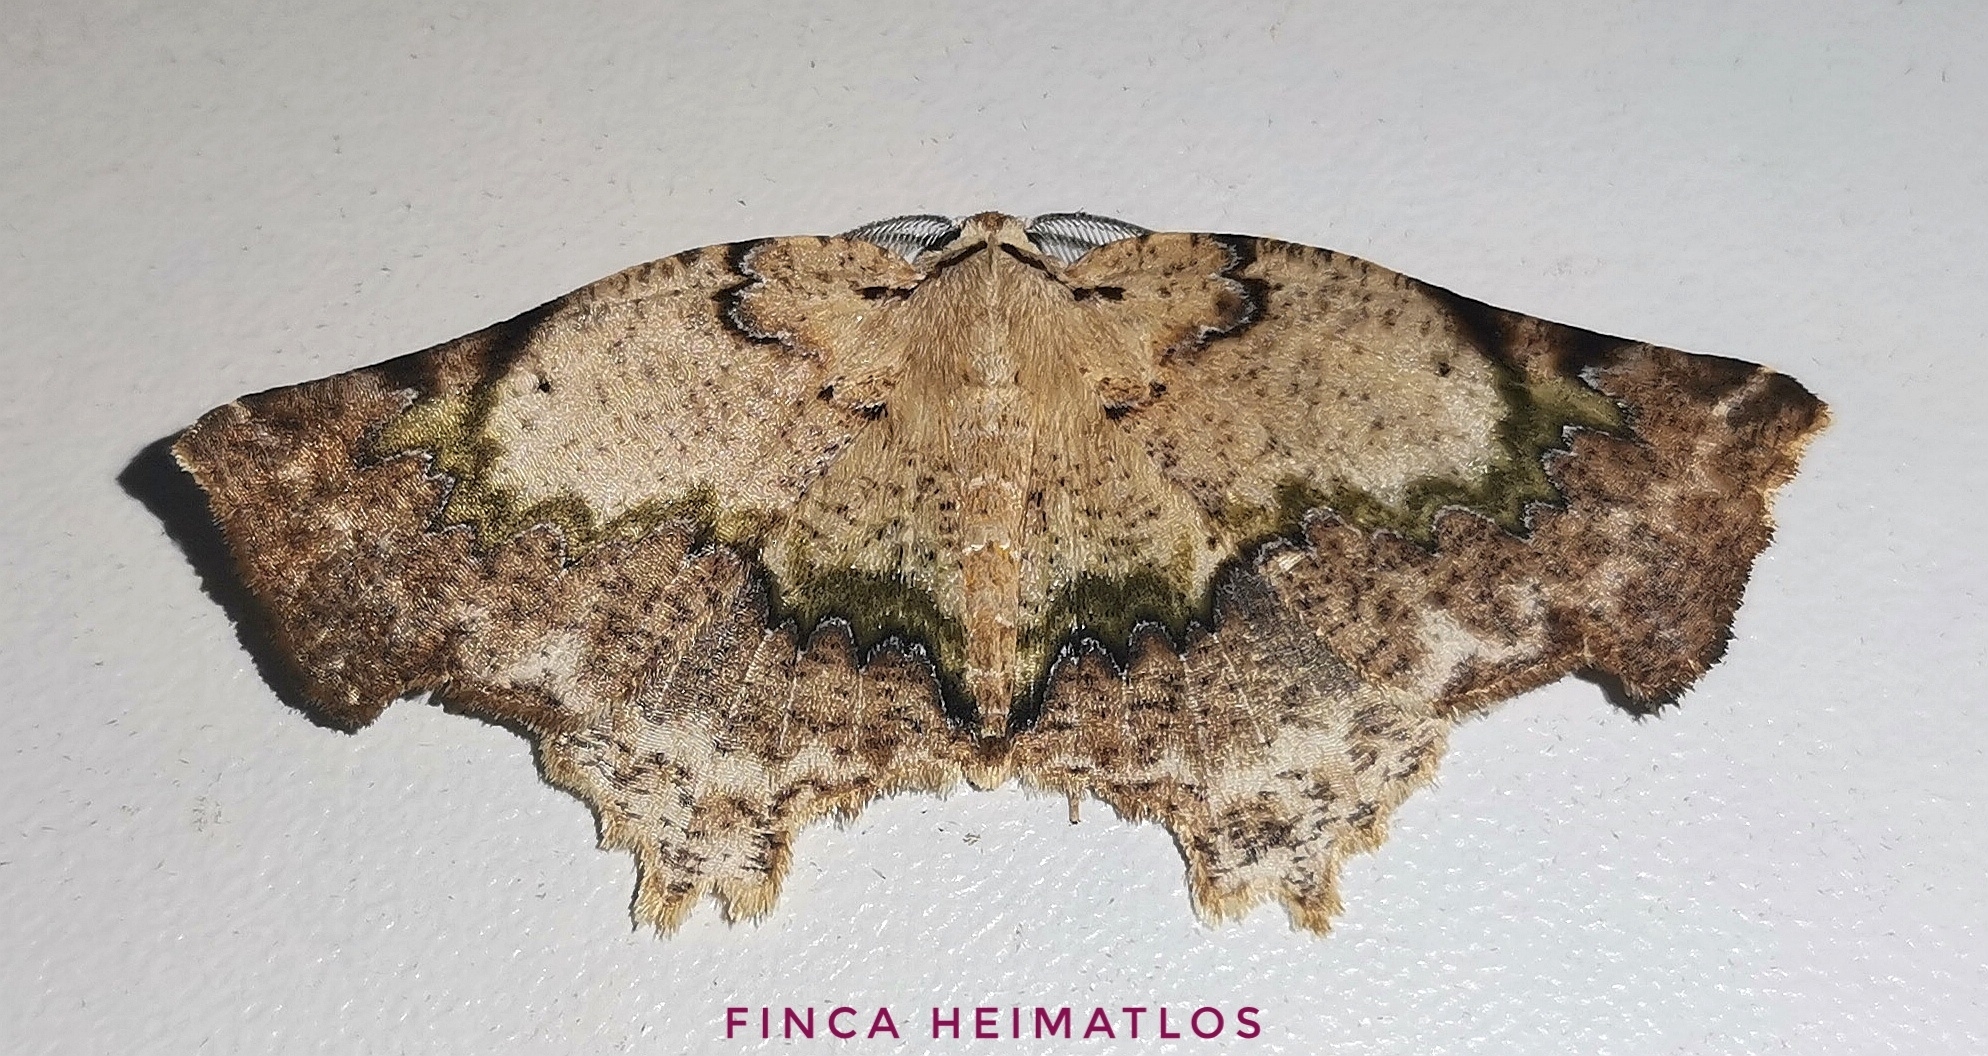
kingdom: Animalia
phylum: Arthropoda
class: Insecta
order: Lepidoptera
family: Geometridae
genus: Tmetomorpha
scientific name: Tmetomorpha bitias
